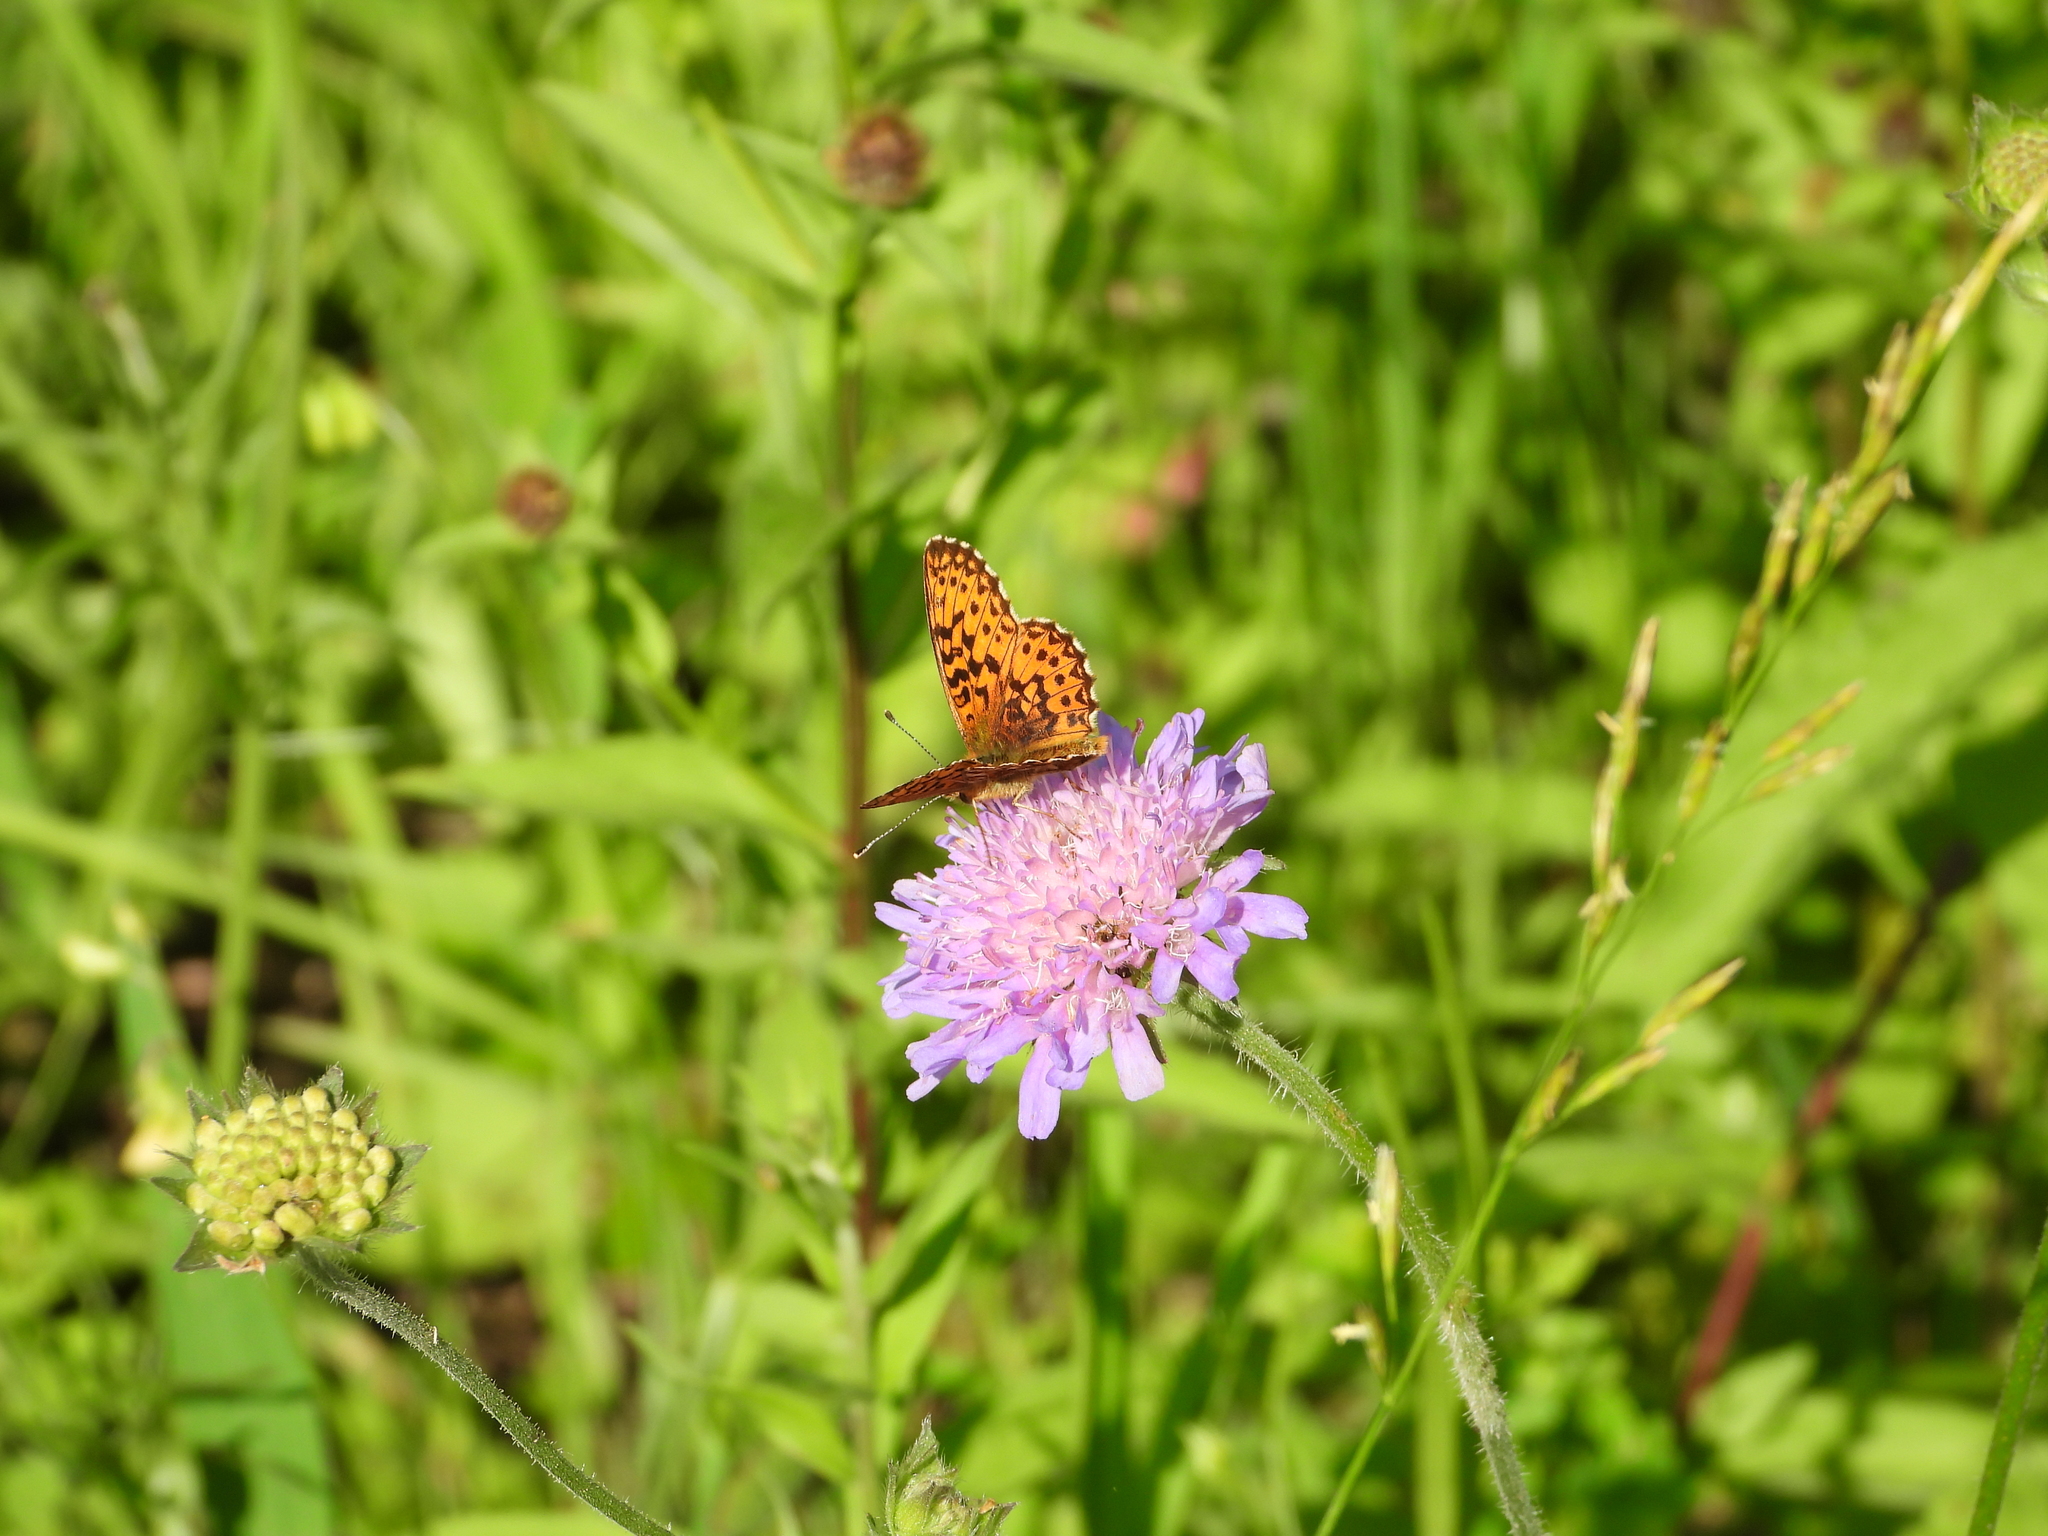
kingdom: Animalia
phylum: Arthropoda
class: Insecta
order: Lepidoptera
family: Nymphalidae
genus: Boloria
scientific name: Boloria titania
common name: Titania's fritillary
